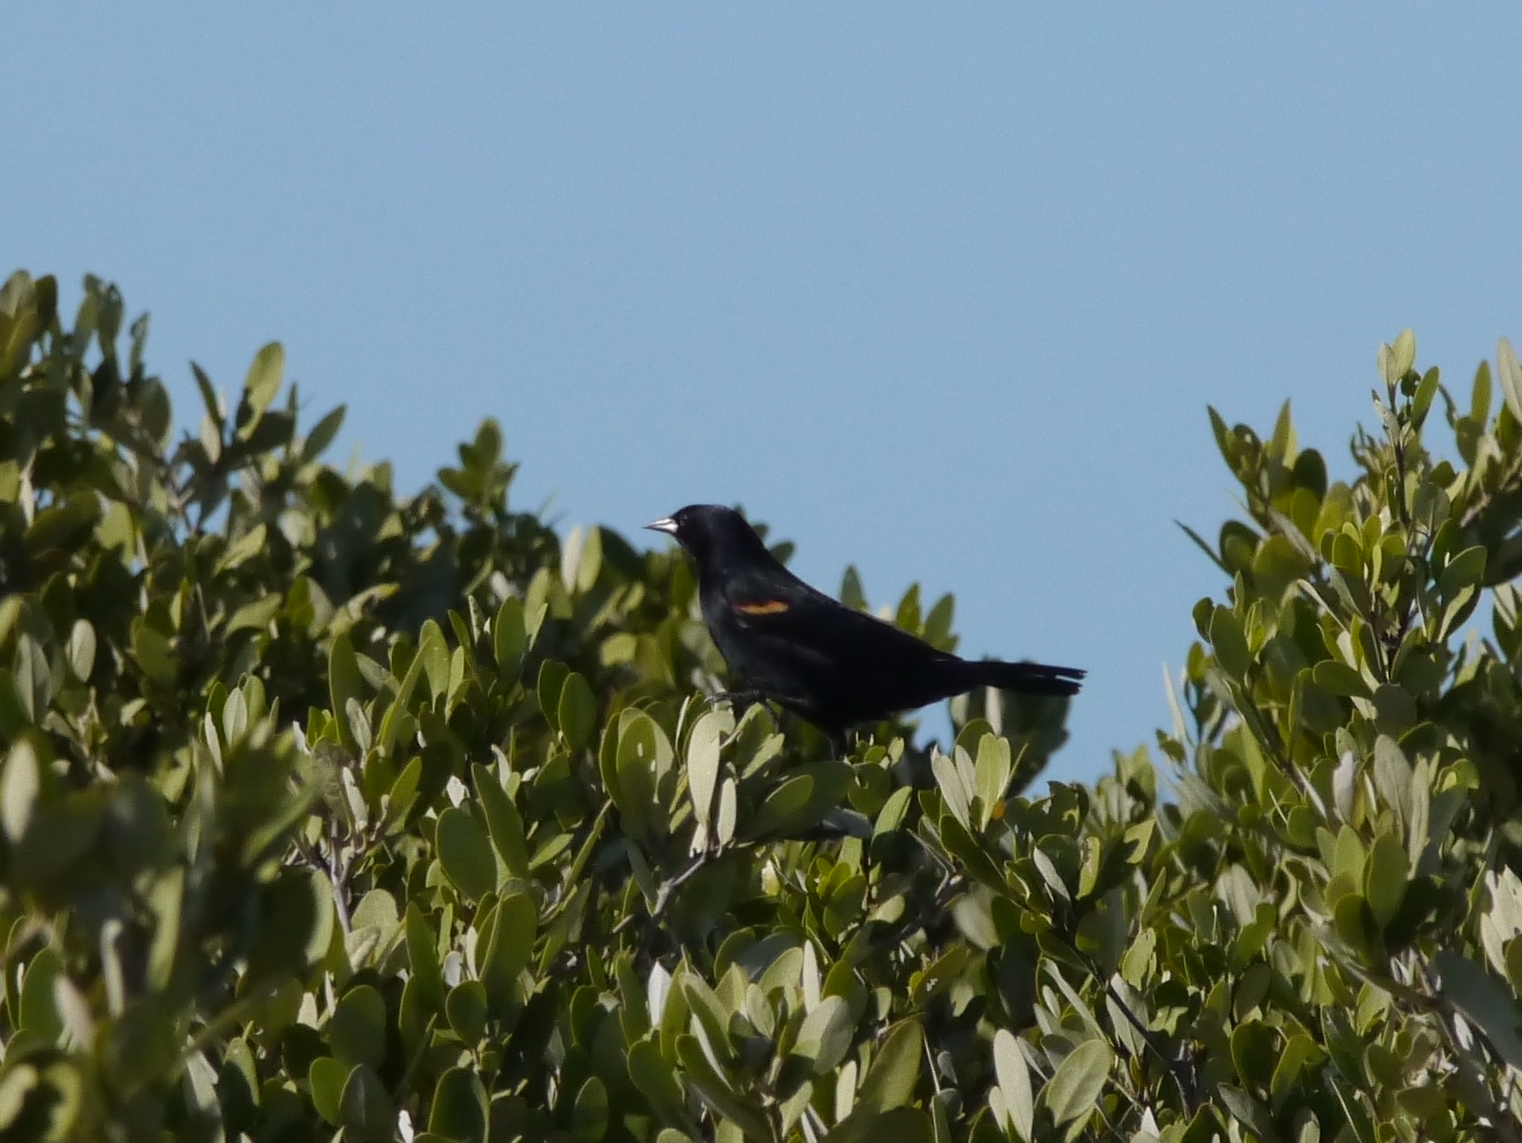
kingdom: Animalia
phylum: Chordata
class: Aves
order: Passeriformes
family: Icteridae
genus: Agelaius
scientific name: Agelaius phoeniceus
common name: Red-winged blackbird
